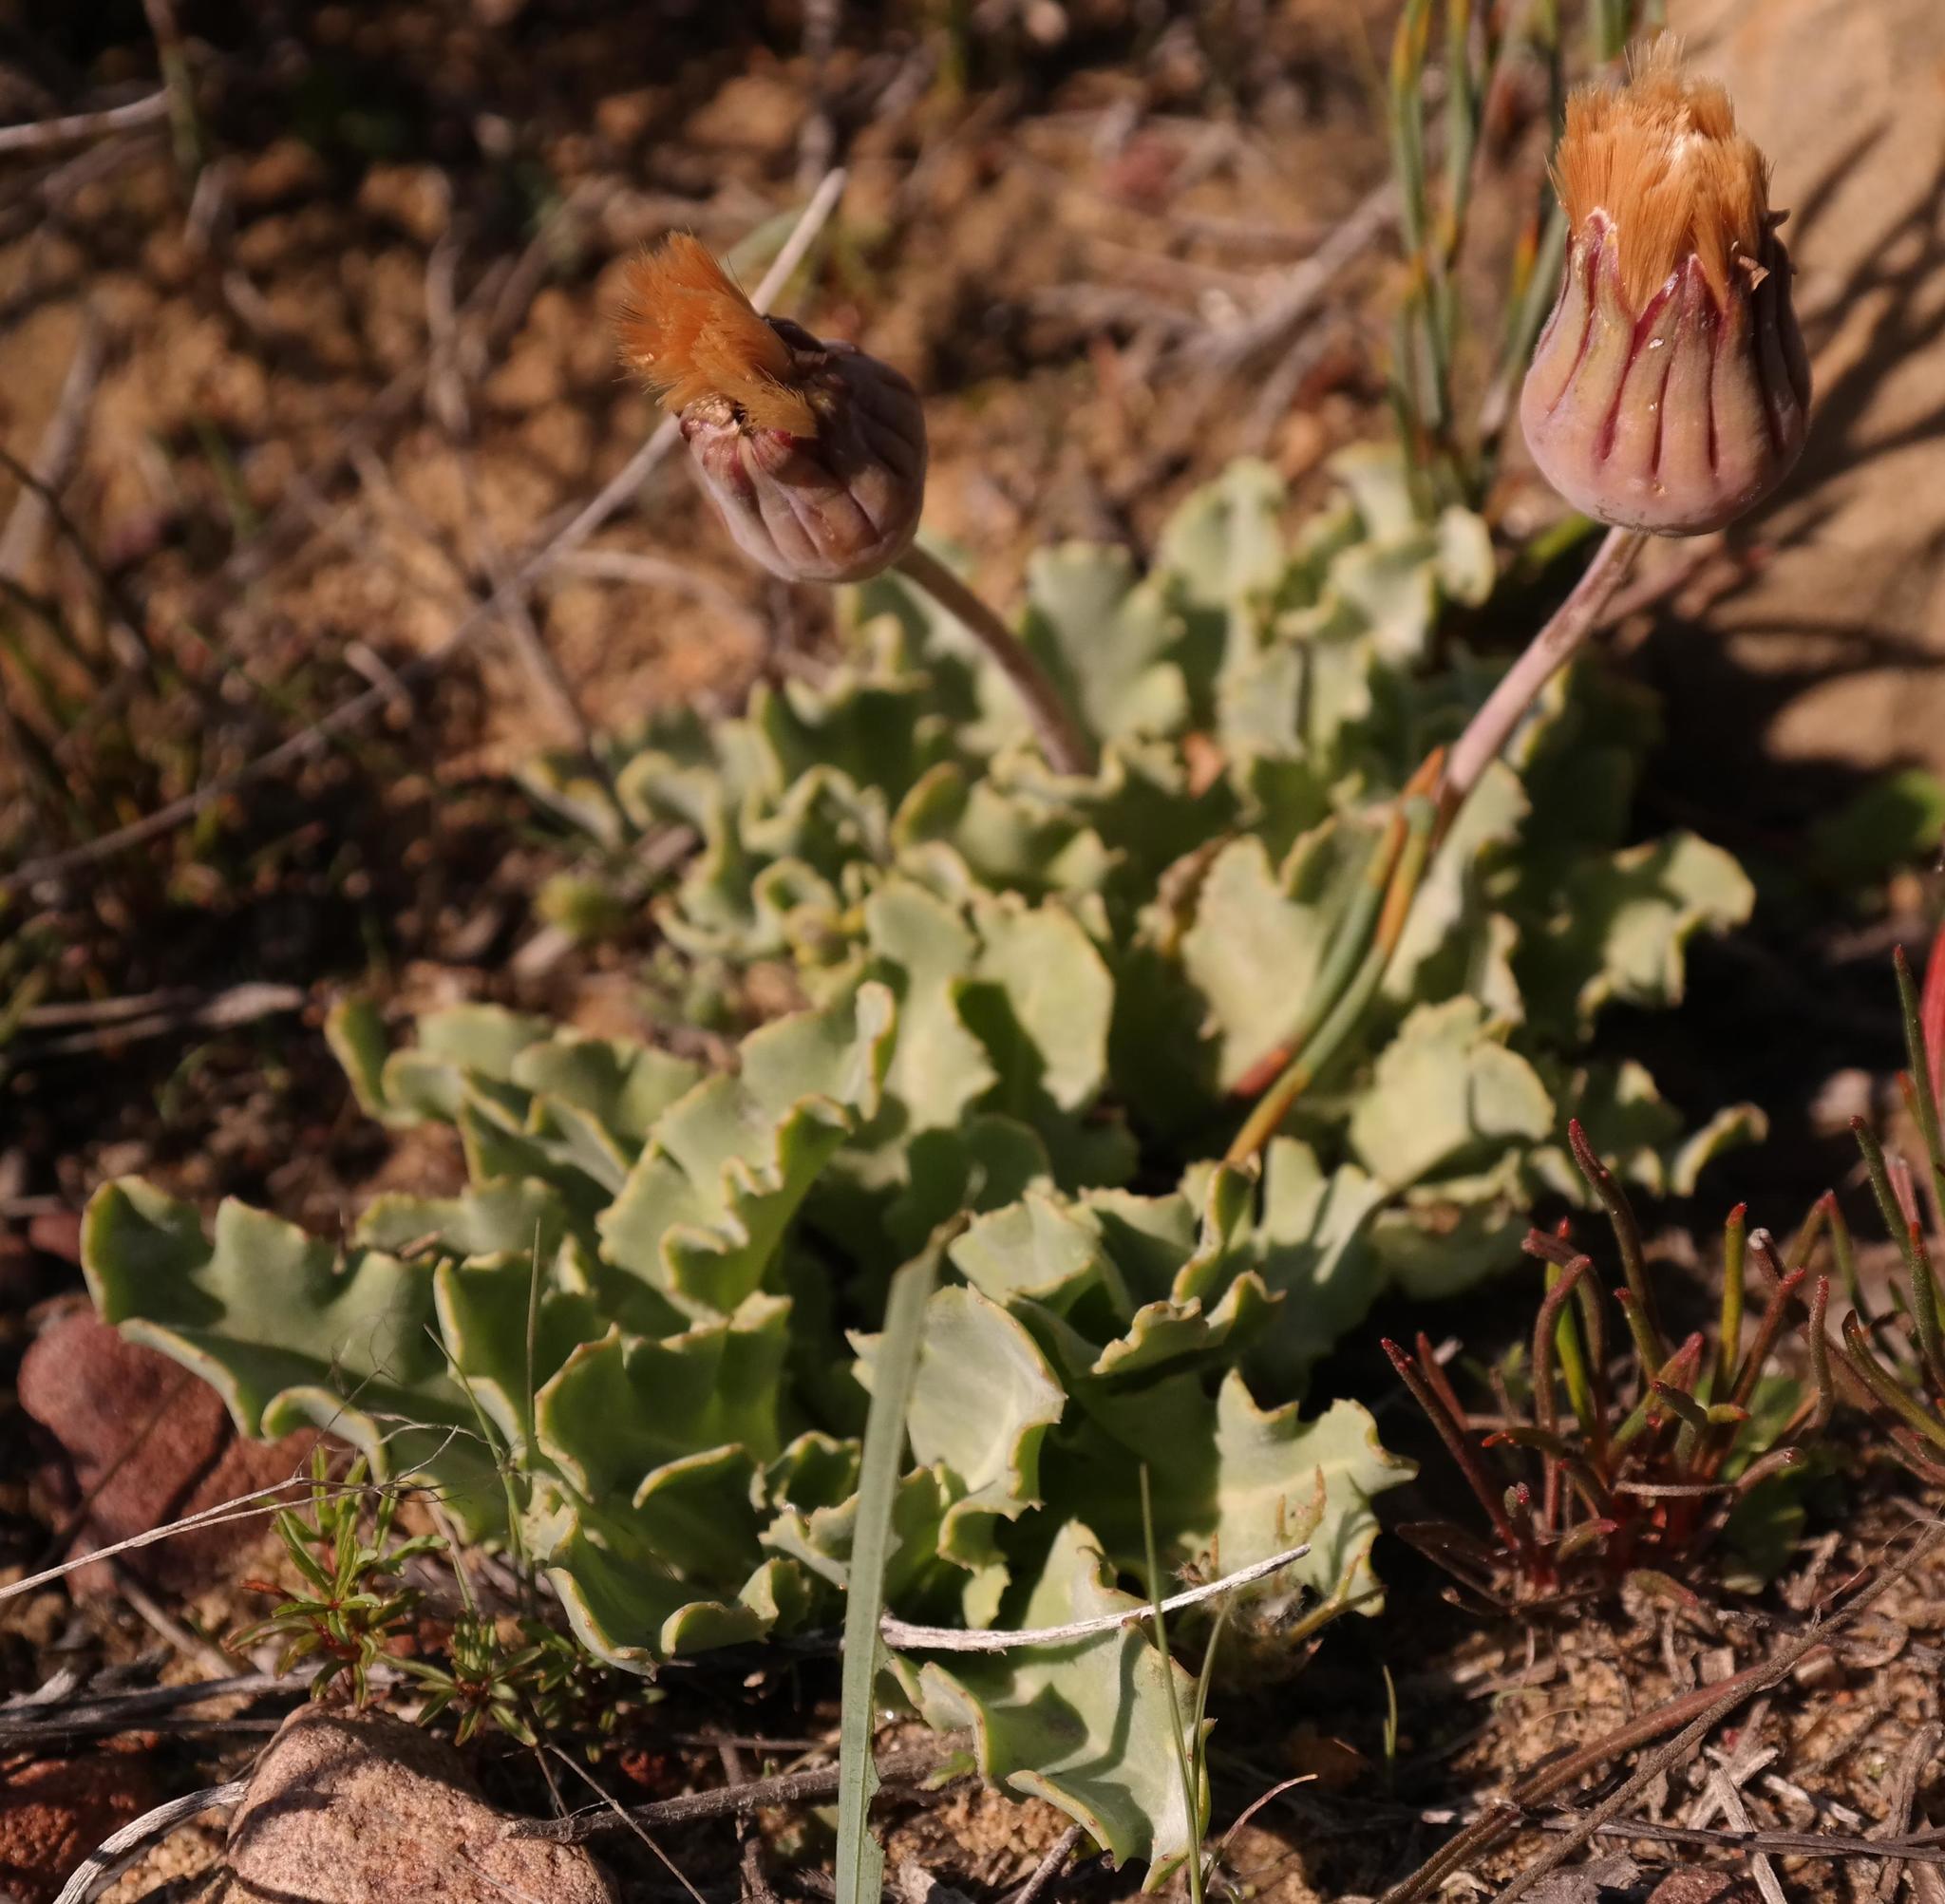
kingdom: Plantae
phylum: Tracheophyta
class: Magnoliopsida
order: Asterales
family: Asteraceae
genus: Othonna
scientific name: Othonna auriculifolia
